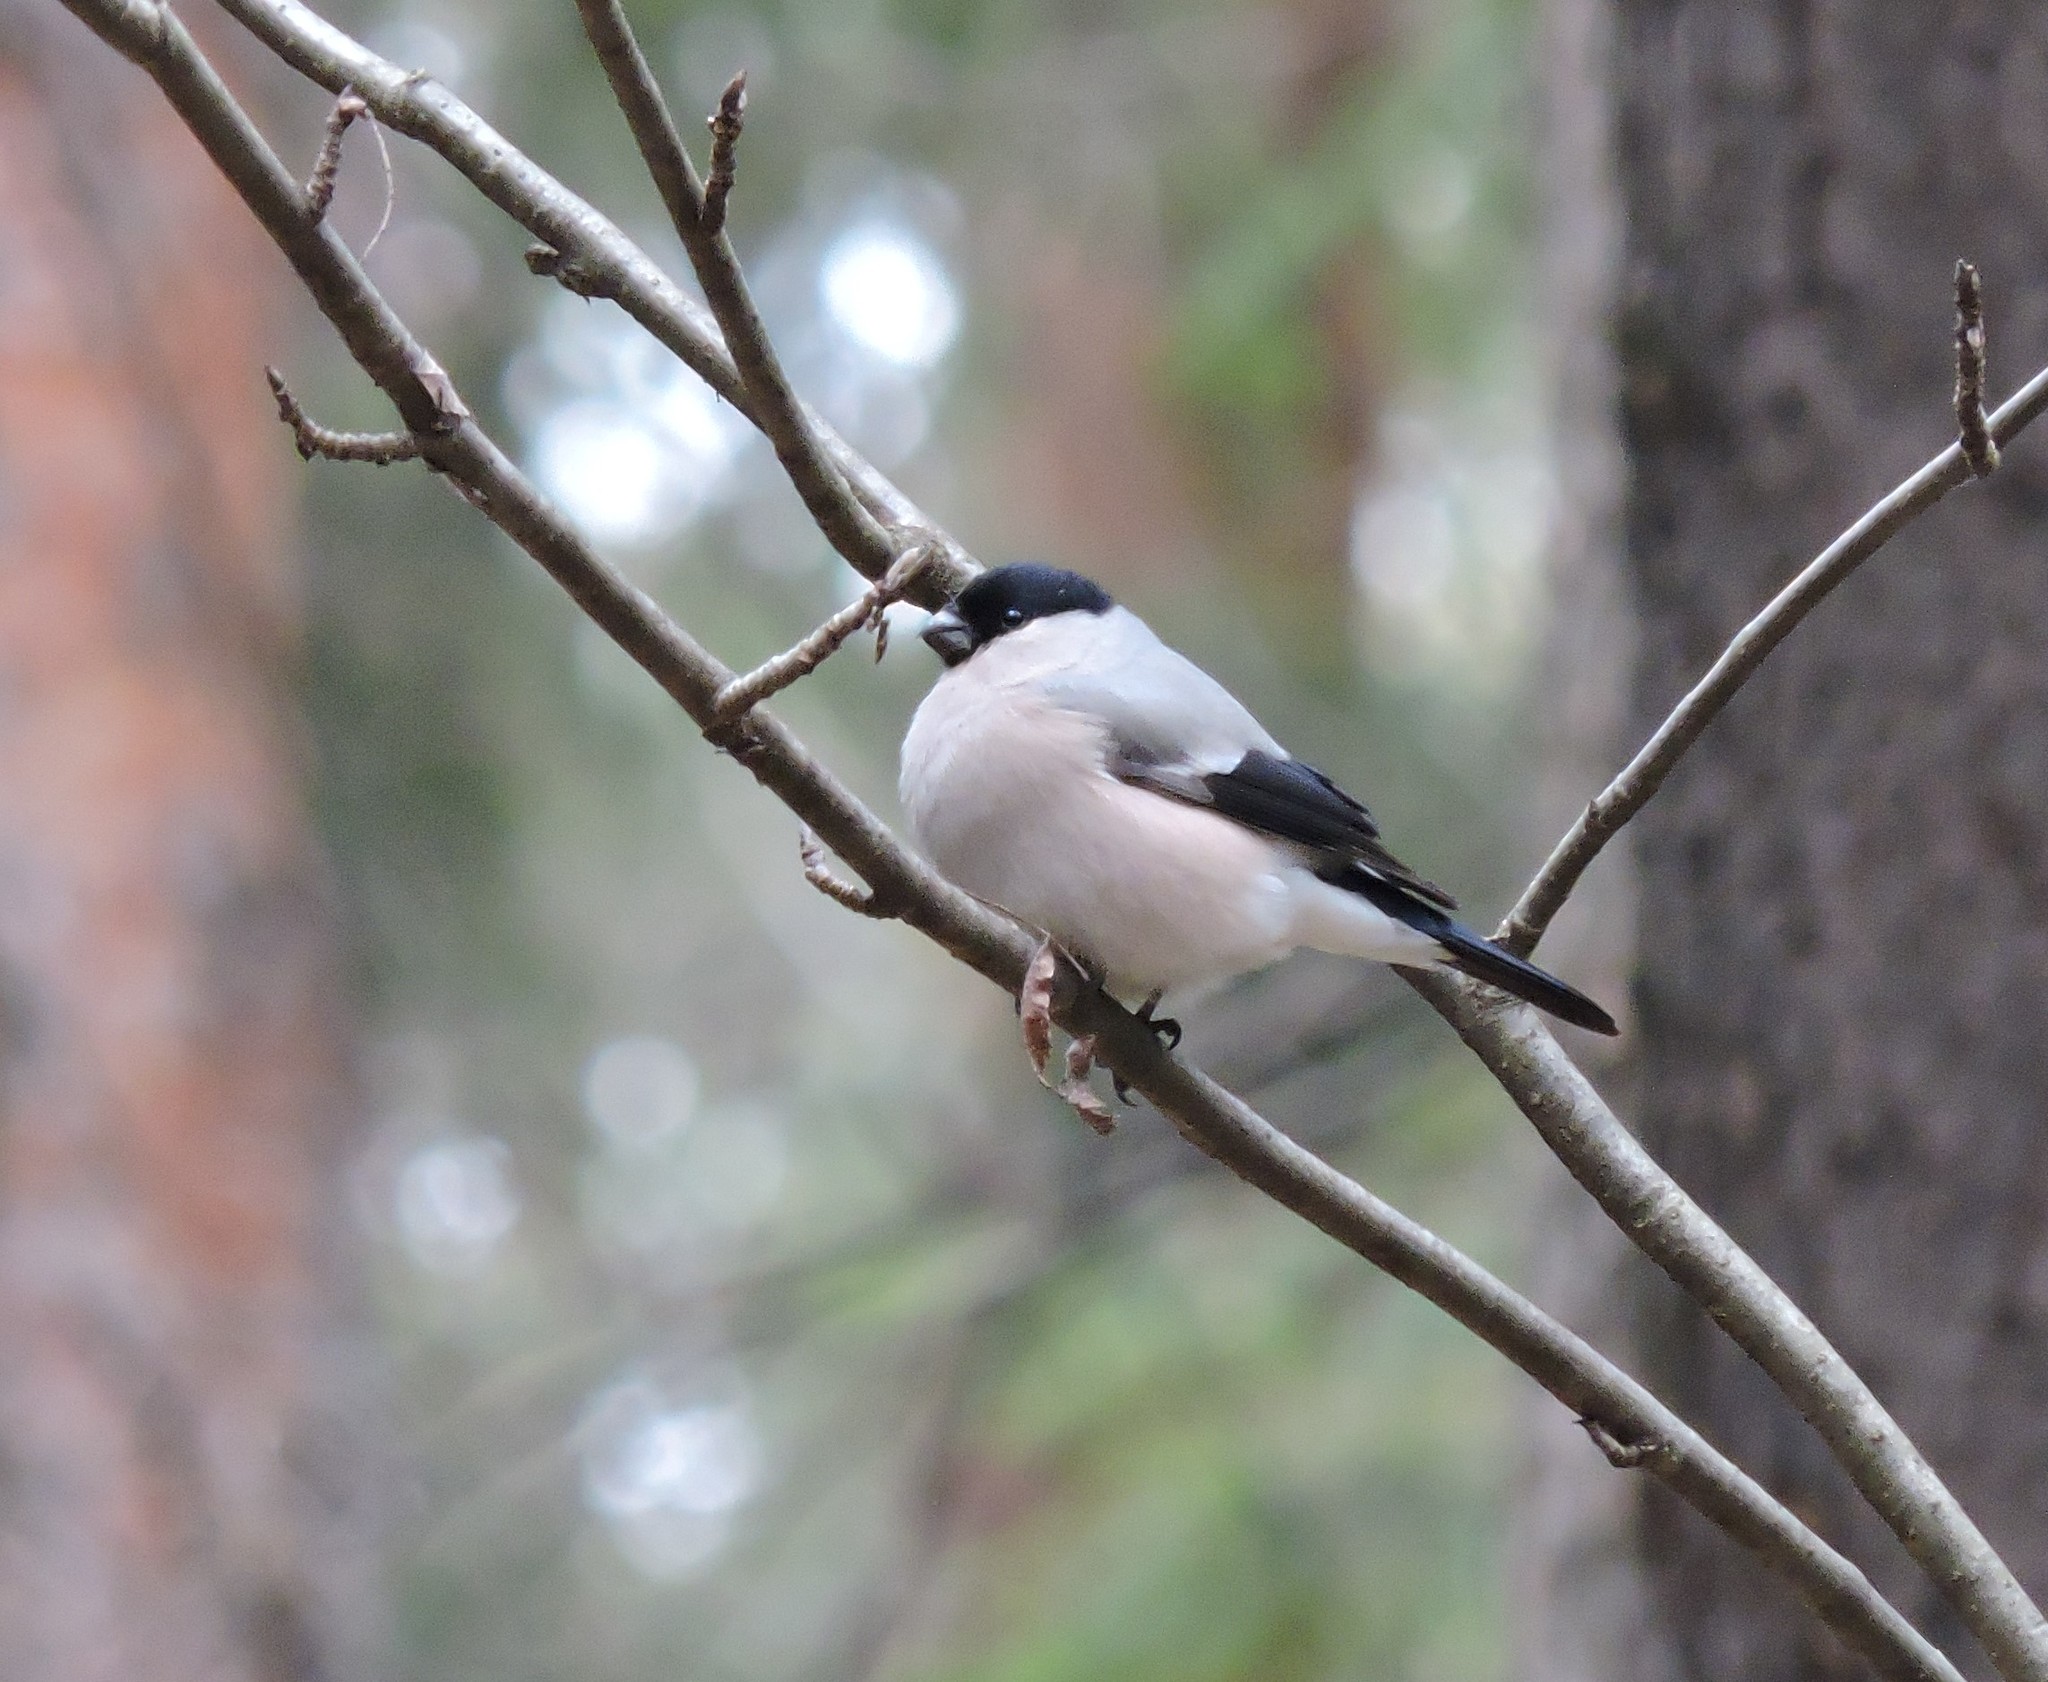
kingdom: Animalia
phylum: Chordata
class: Aves
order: Passeriformes
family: Fringillidae
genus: Pyrrhula
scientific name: Pyrrhula pyrrhula
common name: Eurasian bullfinch
